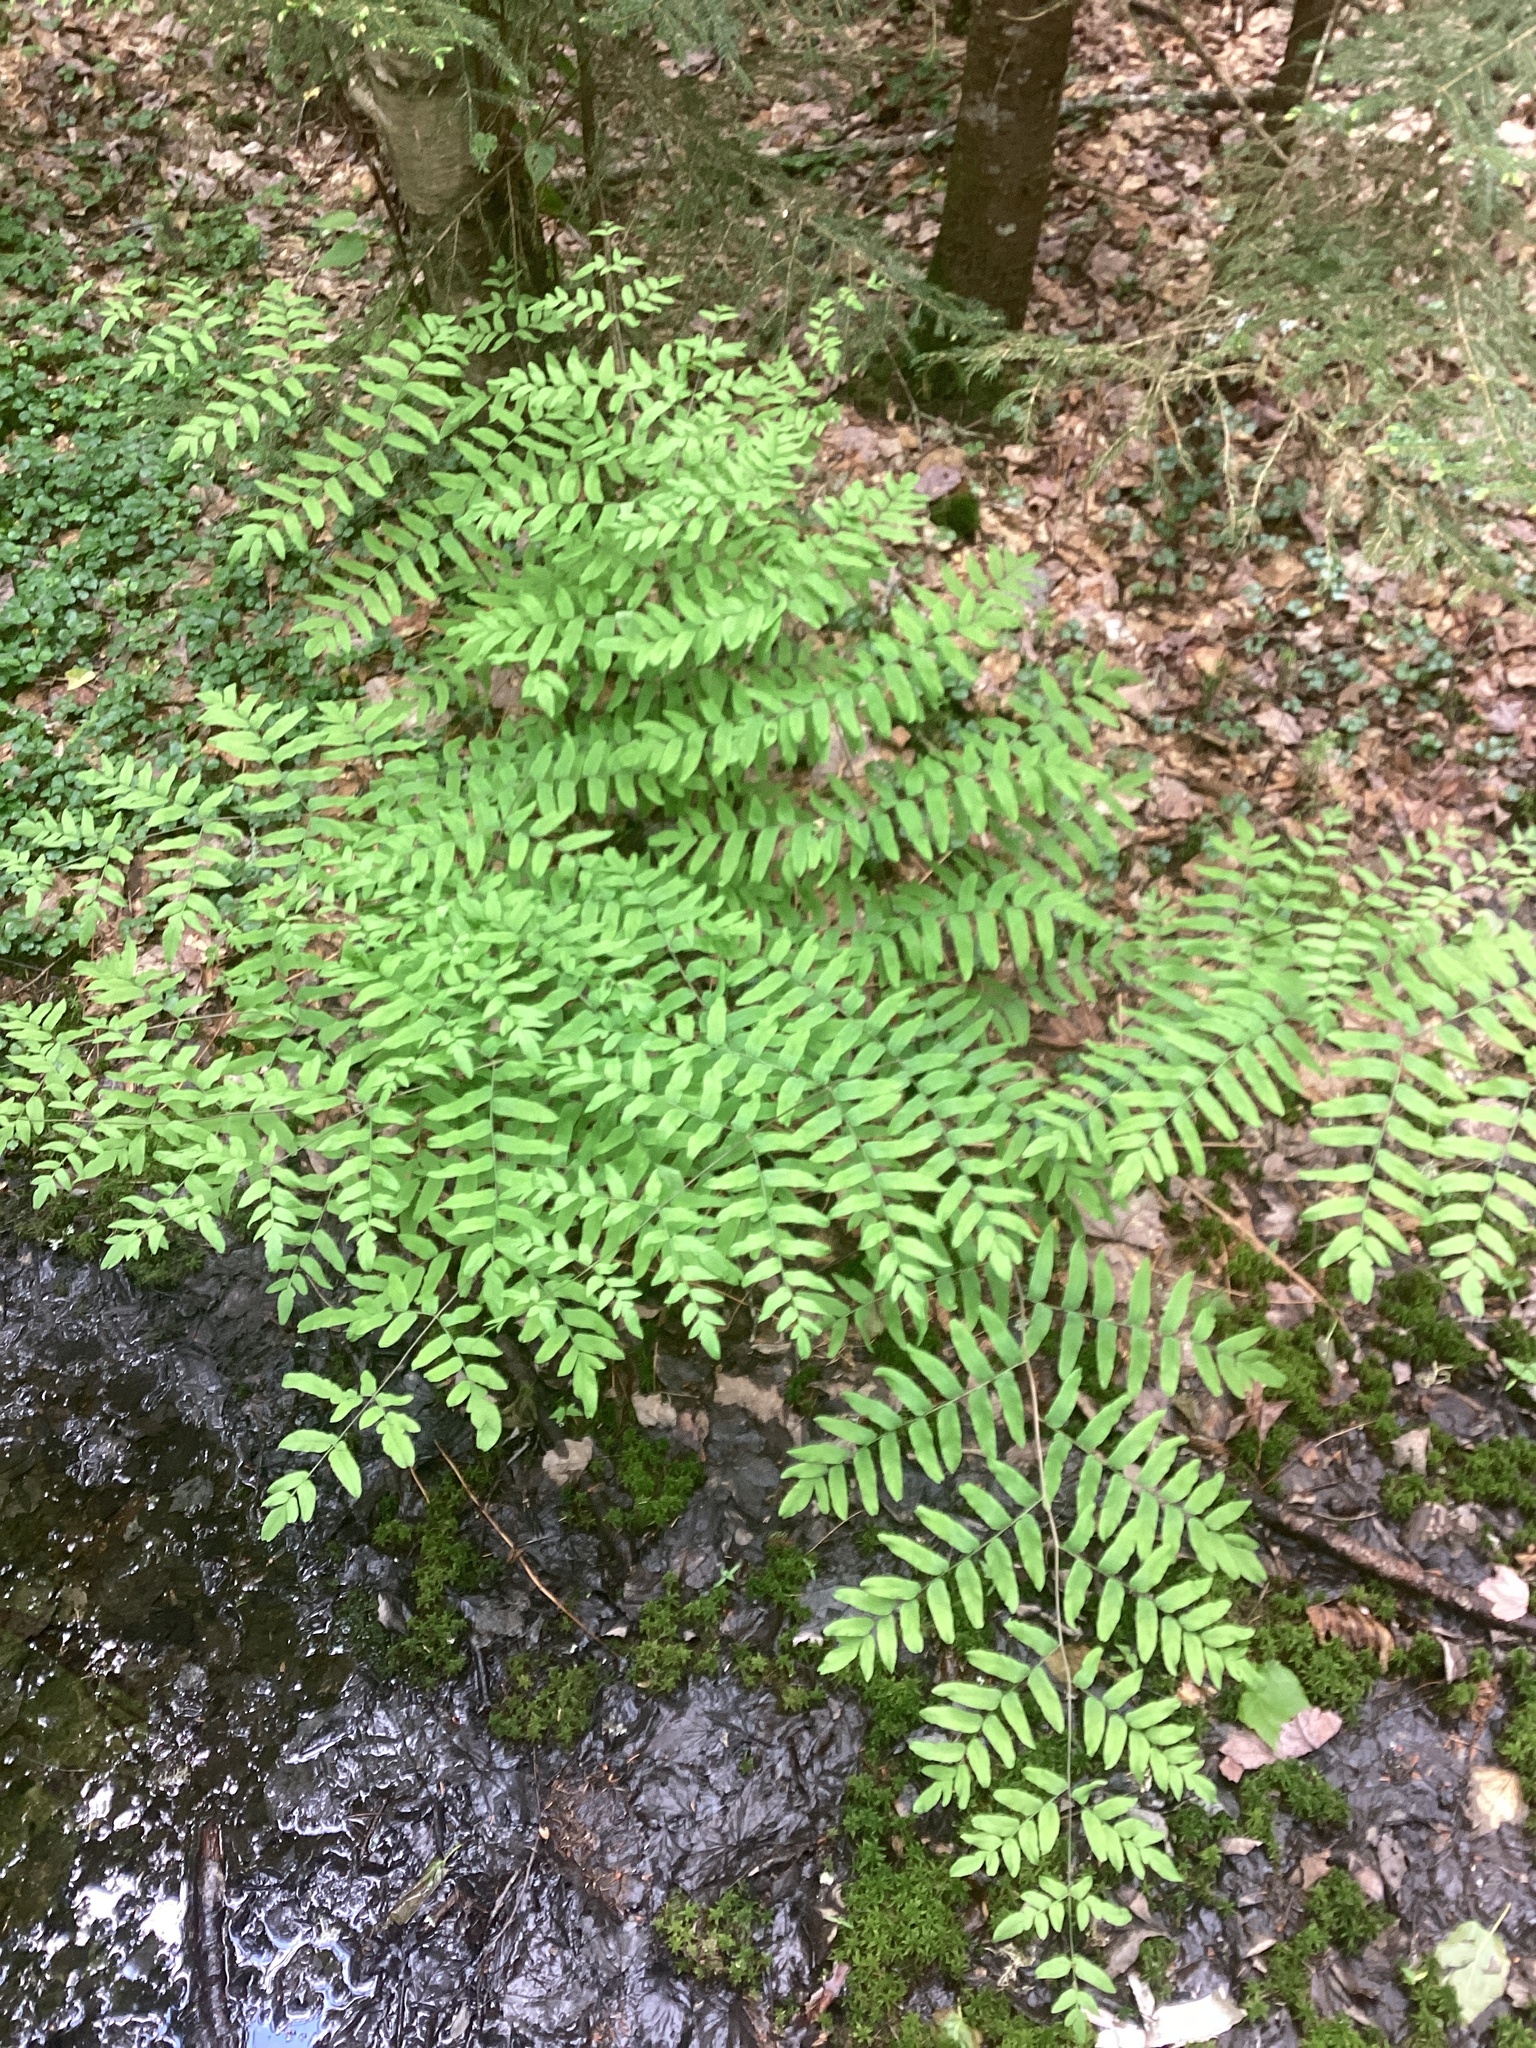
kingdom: Plantae
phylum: Tracheophyta
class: Polypodiopsida
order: Osmundales
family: Osmundaceae
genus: Osmunda
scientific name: Osmunda spectabilis
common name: American royal fern
